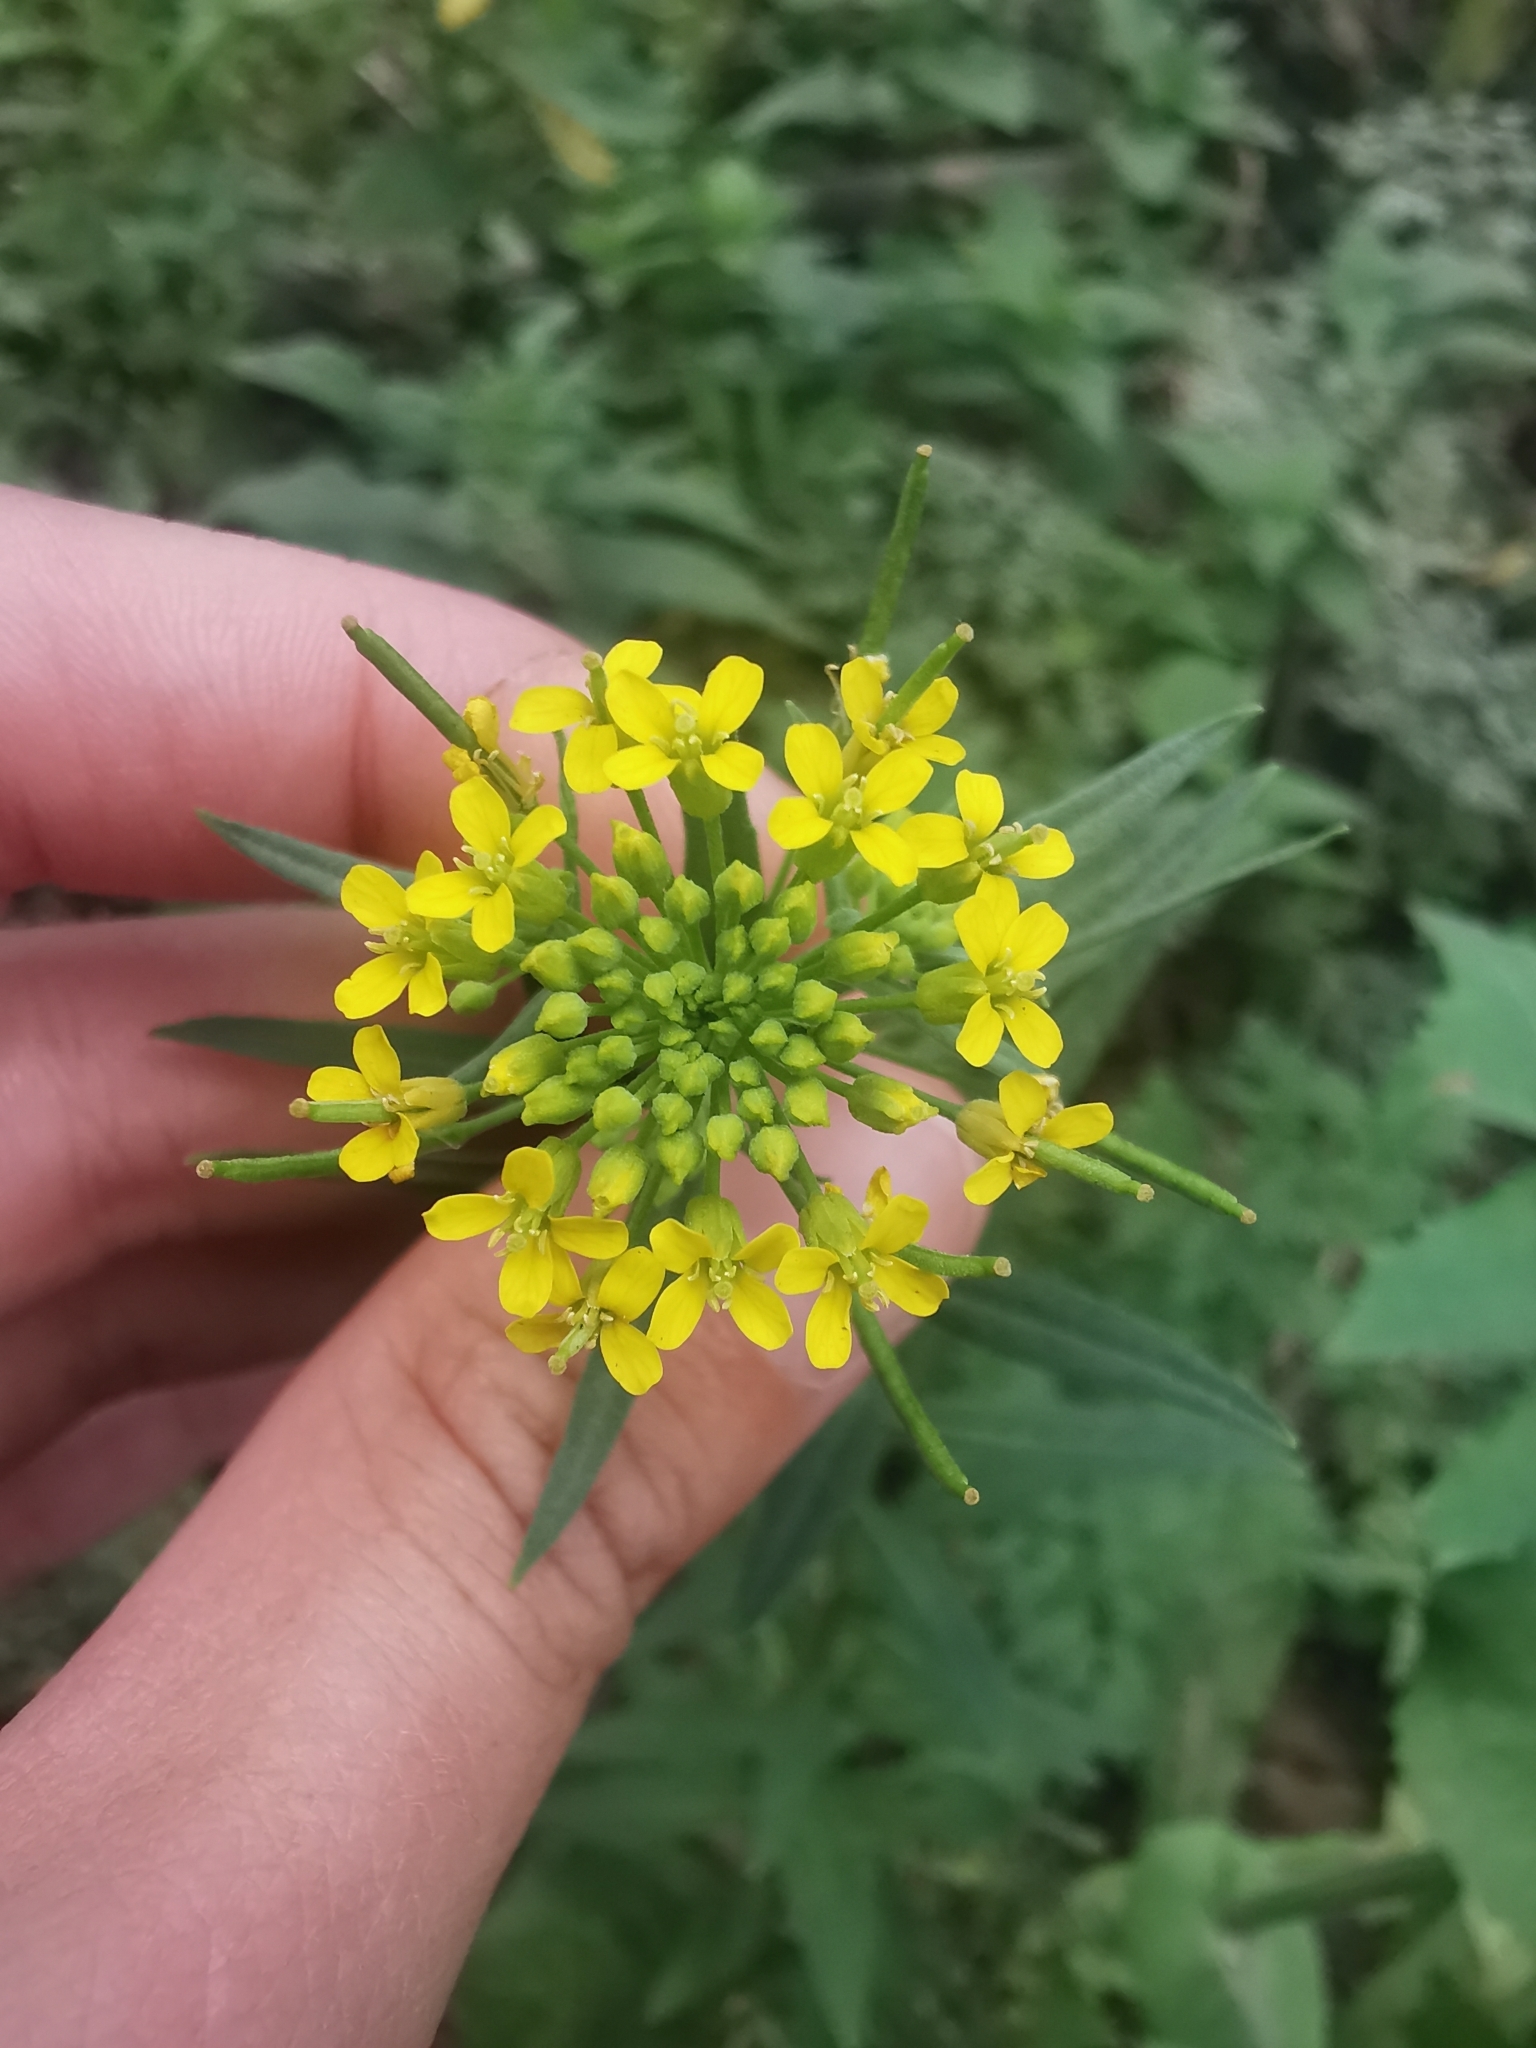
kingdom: Plantae
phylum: Tracheophyta
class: Magnoliopsida
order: Brassicales
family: Brassicaceae
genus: Erysimum
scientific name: Erysimum cheiranthoides
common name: Treacle mustard
